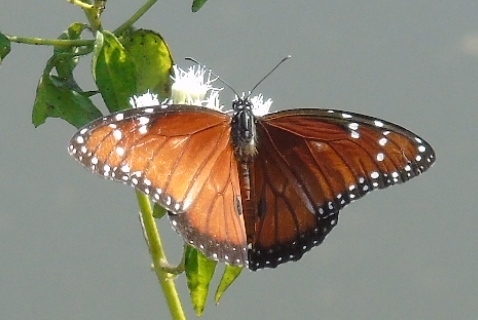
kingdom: Animalia
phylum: Arthropoda
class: Insecta
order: Lepidoptera
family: Nymphalidae
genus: Danaus
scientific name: Danaus eresimus
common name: Soldier
